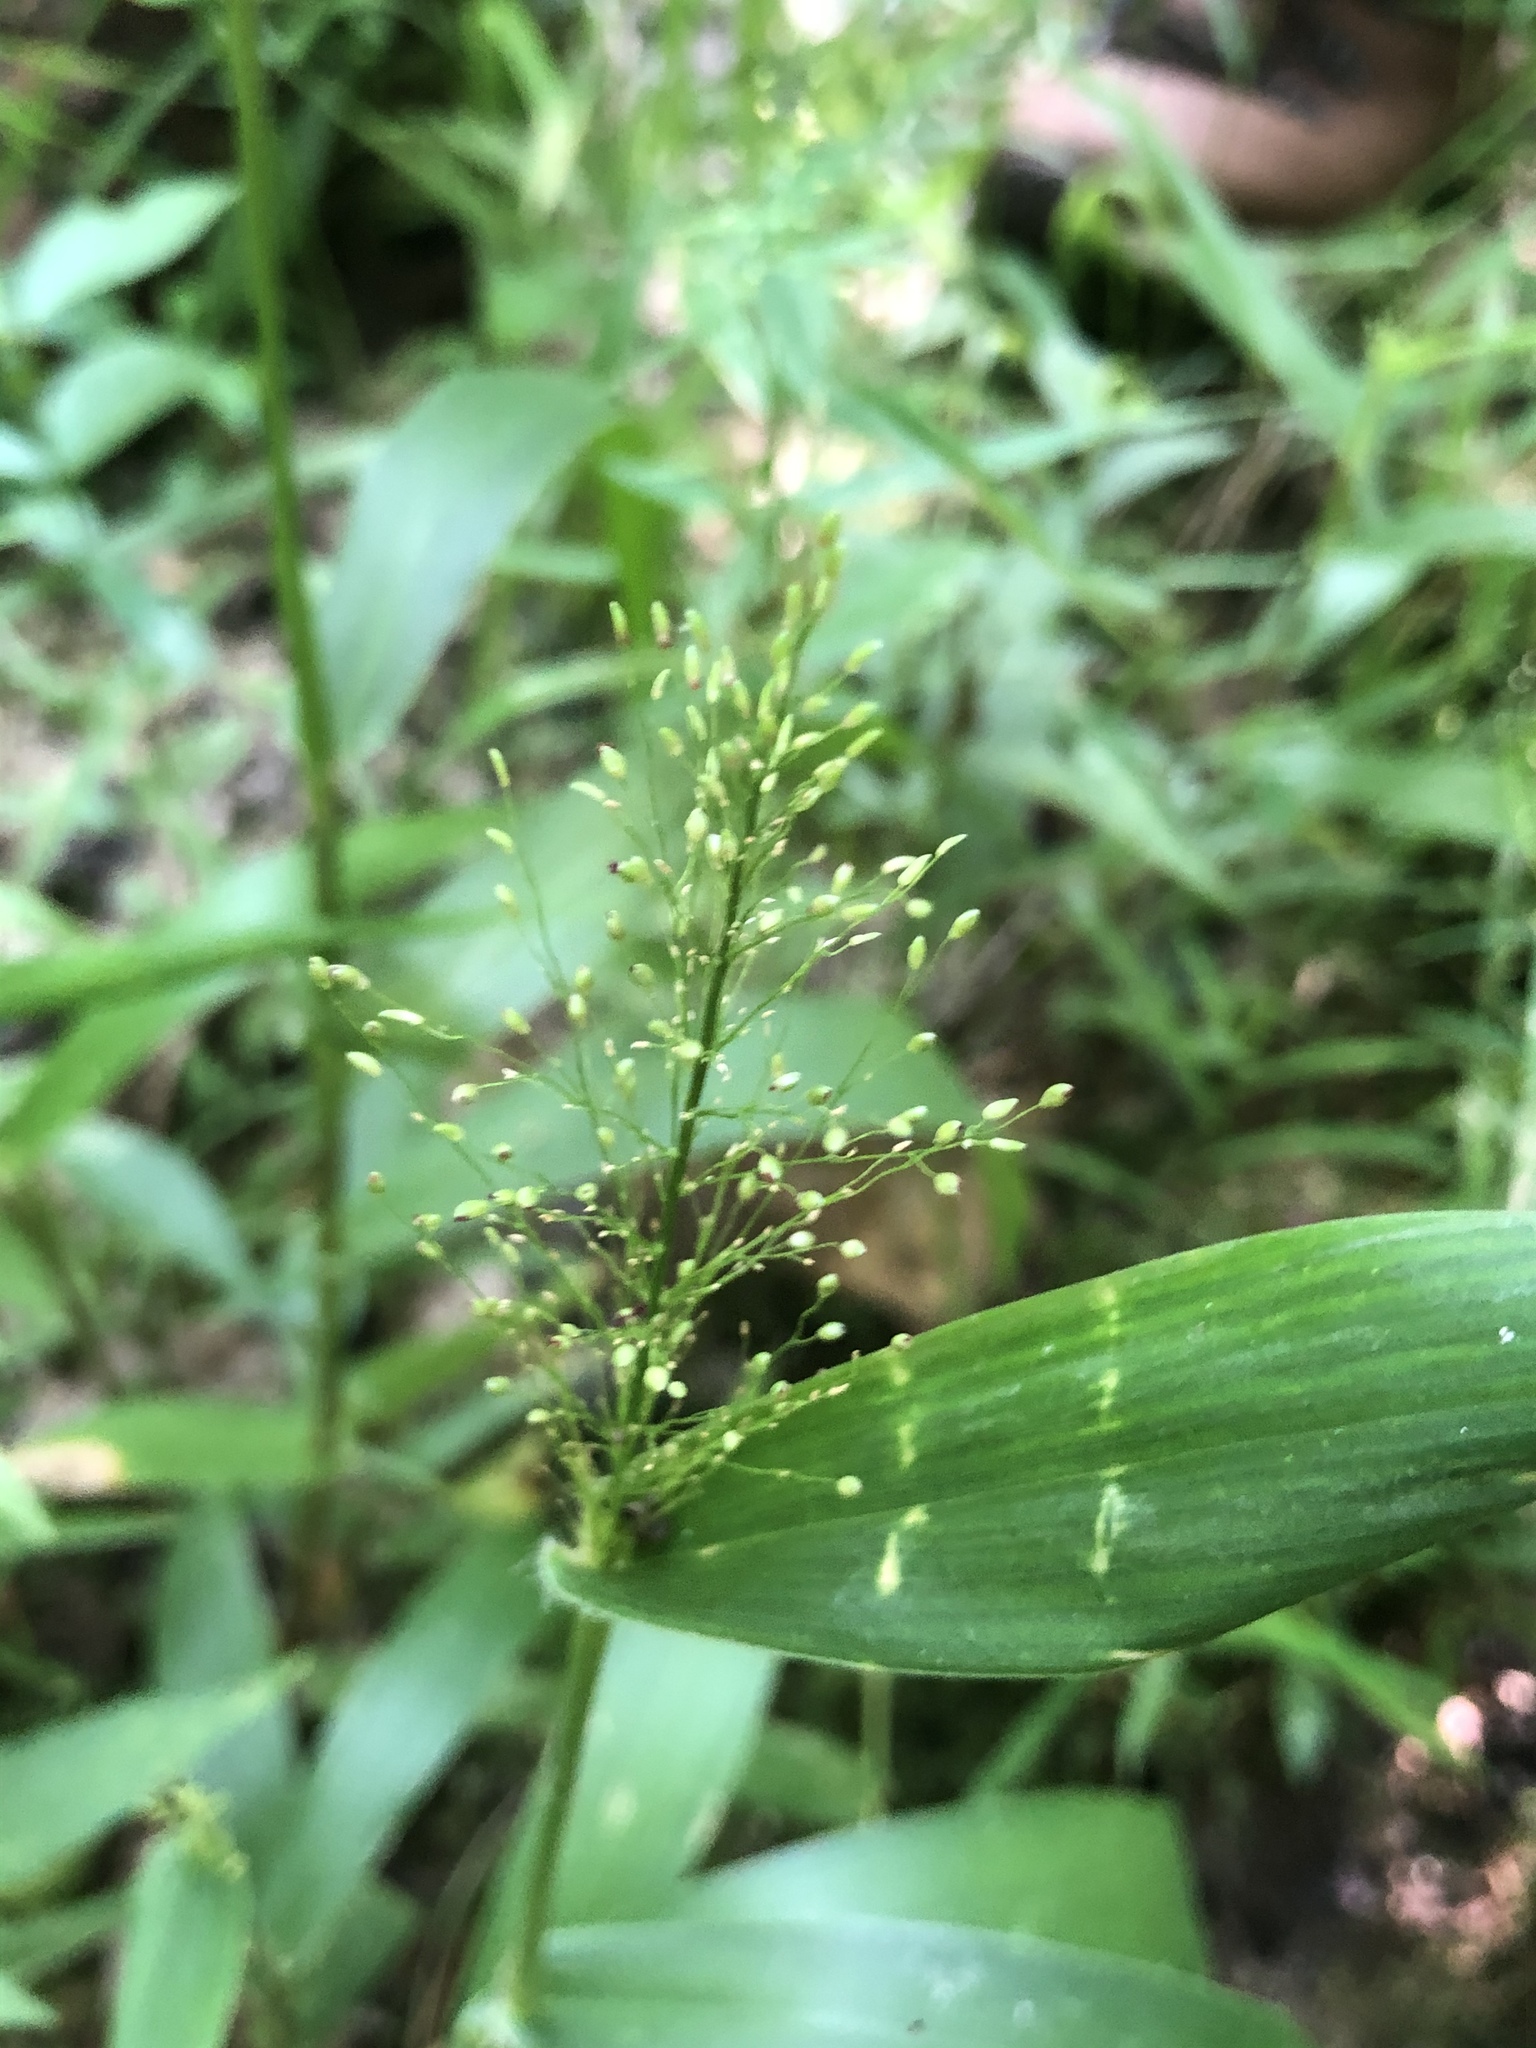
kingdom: Plantae
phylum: Tracheophyta
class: Liliopsida
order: Poales
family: Poaceae
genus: Dichanthelium
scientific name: Dichanthelium polyanthes
